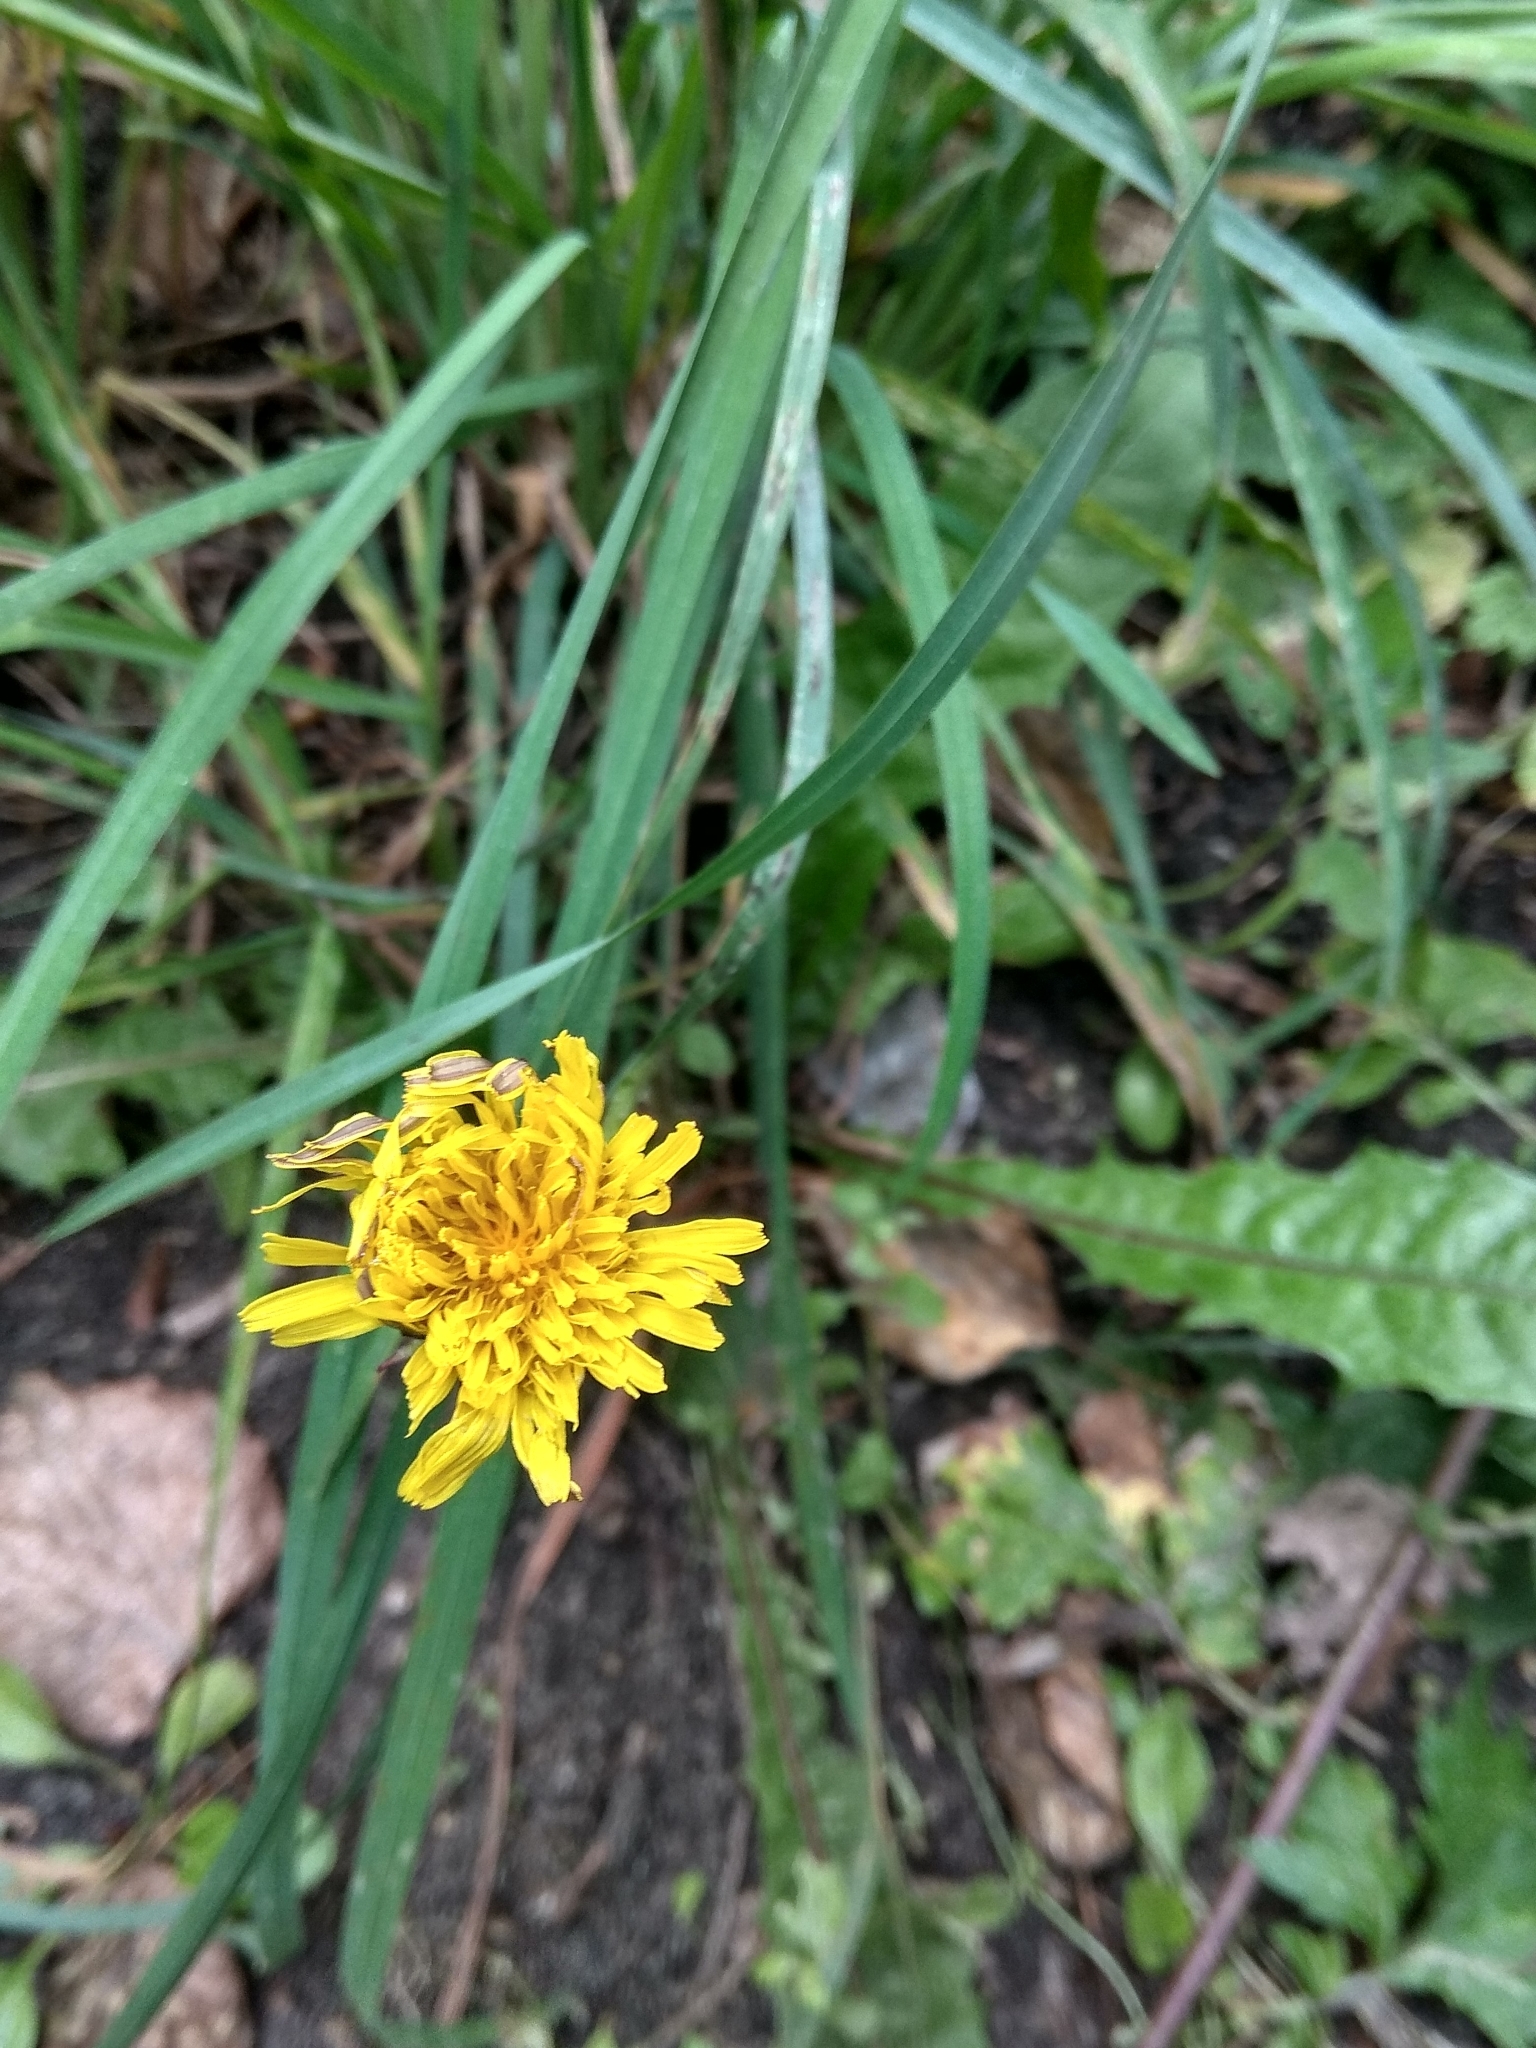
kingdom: Plantae
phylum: Tracheophyta
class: Magnoliopsida
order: Asterales
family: Asteraceae
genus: Taraxacum
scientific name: Taraxacum officinale
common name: Common dandelion
